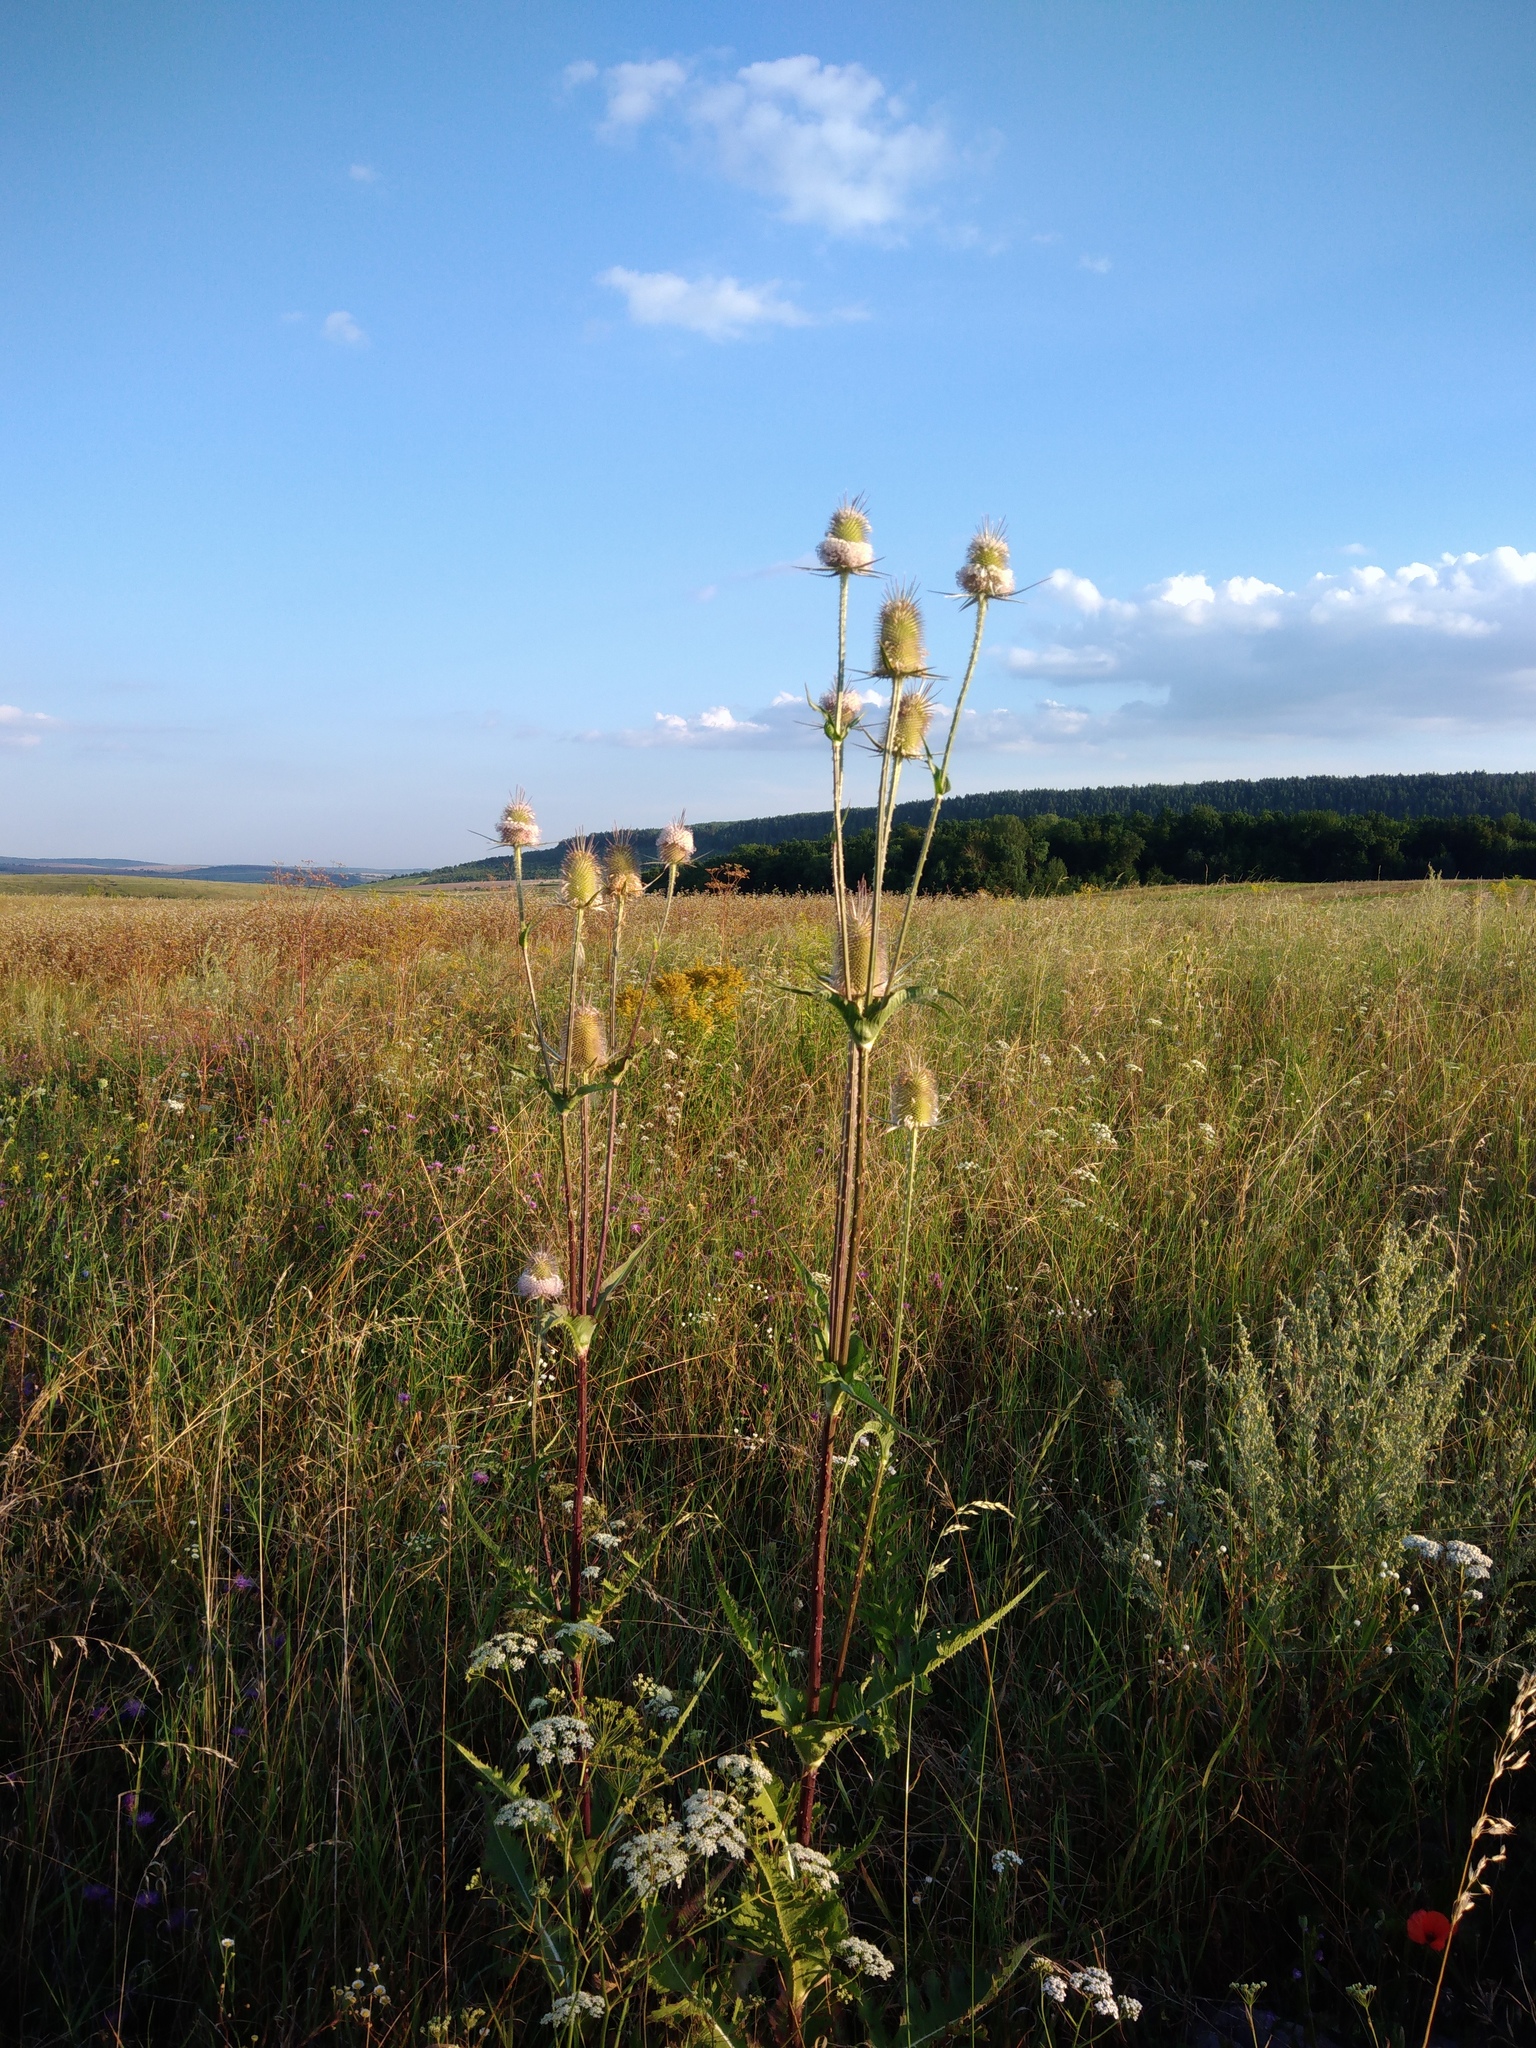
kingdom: Plantae
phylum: Tracheophyta
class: Magnoliopsida
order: Dipsacales
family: Caprifoliaceae
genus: Dipsacus
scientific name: Dipsacus laciniatus
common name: Cut-leaved teasel
